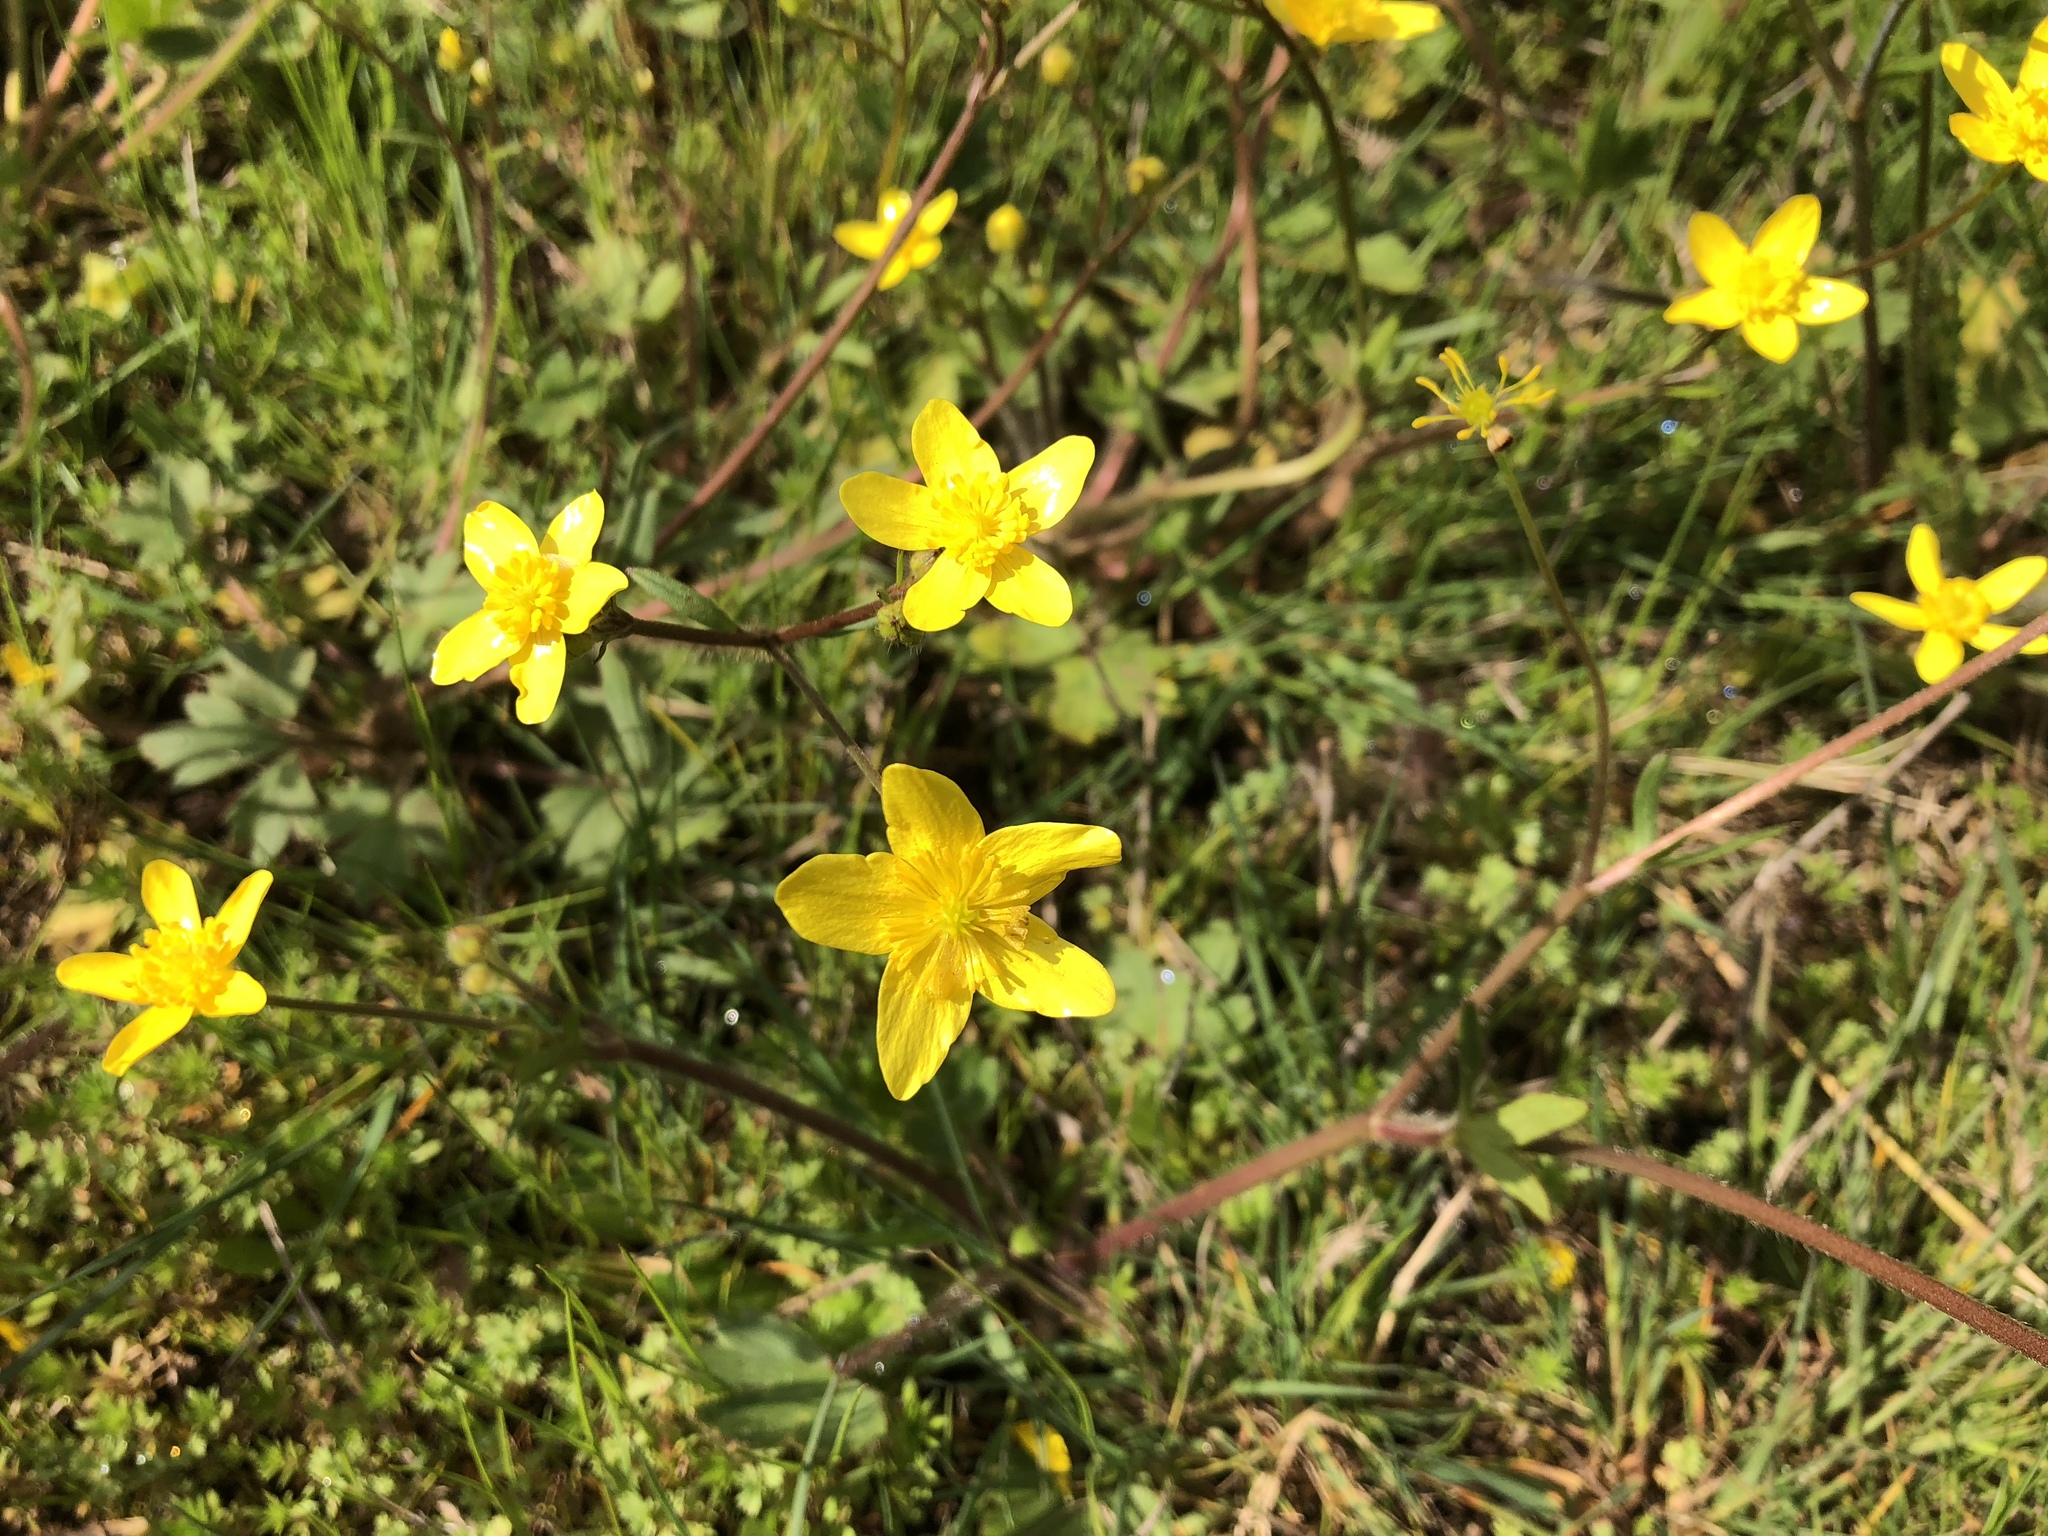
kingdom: Plantae
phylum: Tracheophyta
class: Magnoliopsida
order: Ranunculales
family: Ranunculaceae
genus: Ranunculus
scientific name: Ranunculus occidentalis
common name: Western buttercup
